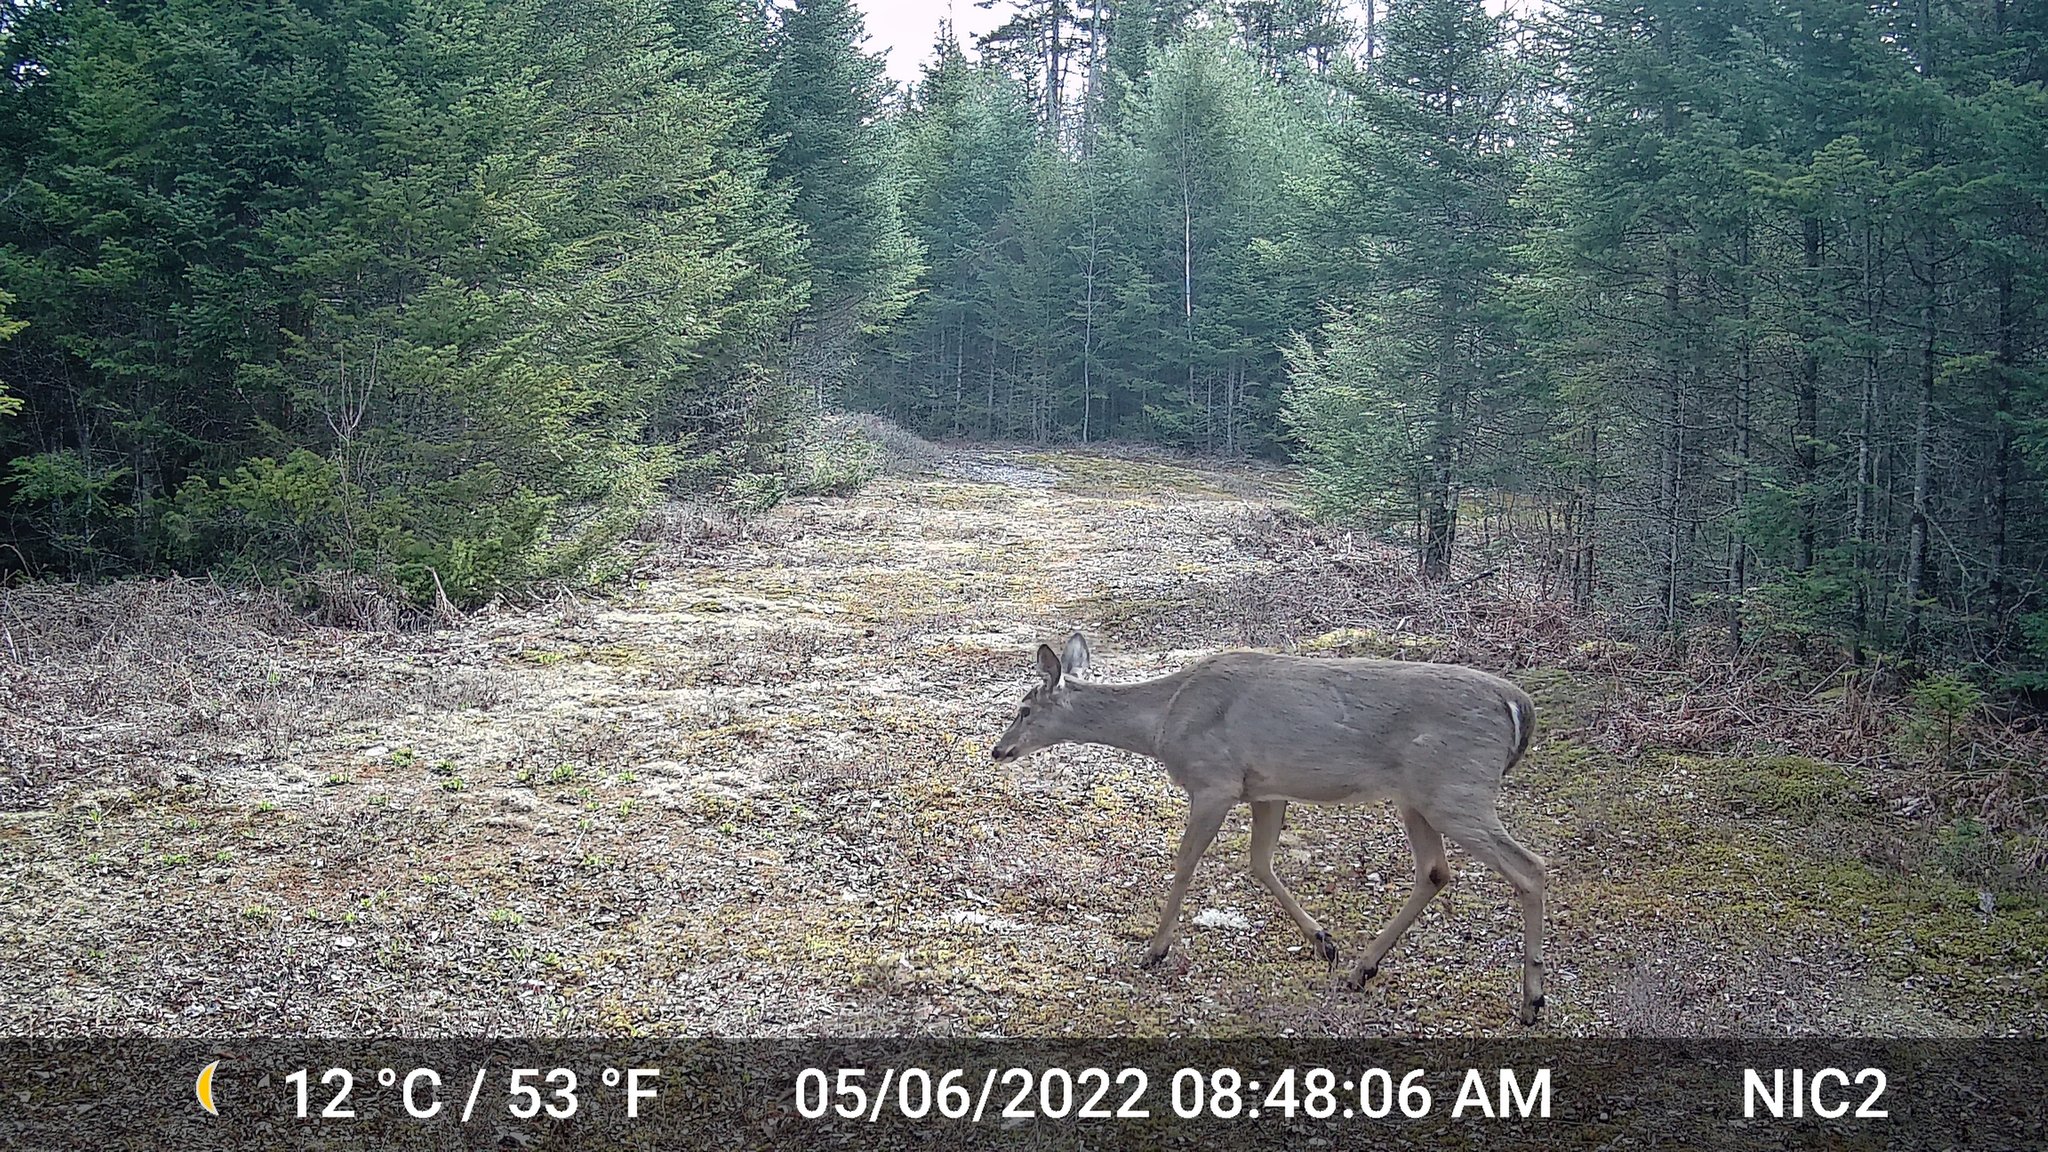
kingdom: Animalia
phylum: Chordata
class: Mammalia
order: Artiodactyla
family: Cervidae
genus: Odocoileus
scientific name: Odocoileus virginianus
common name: White-tailed deer
